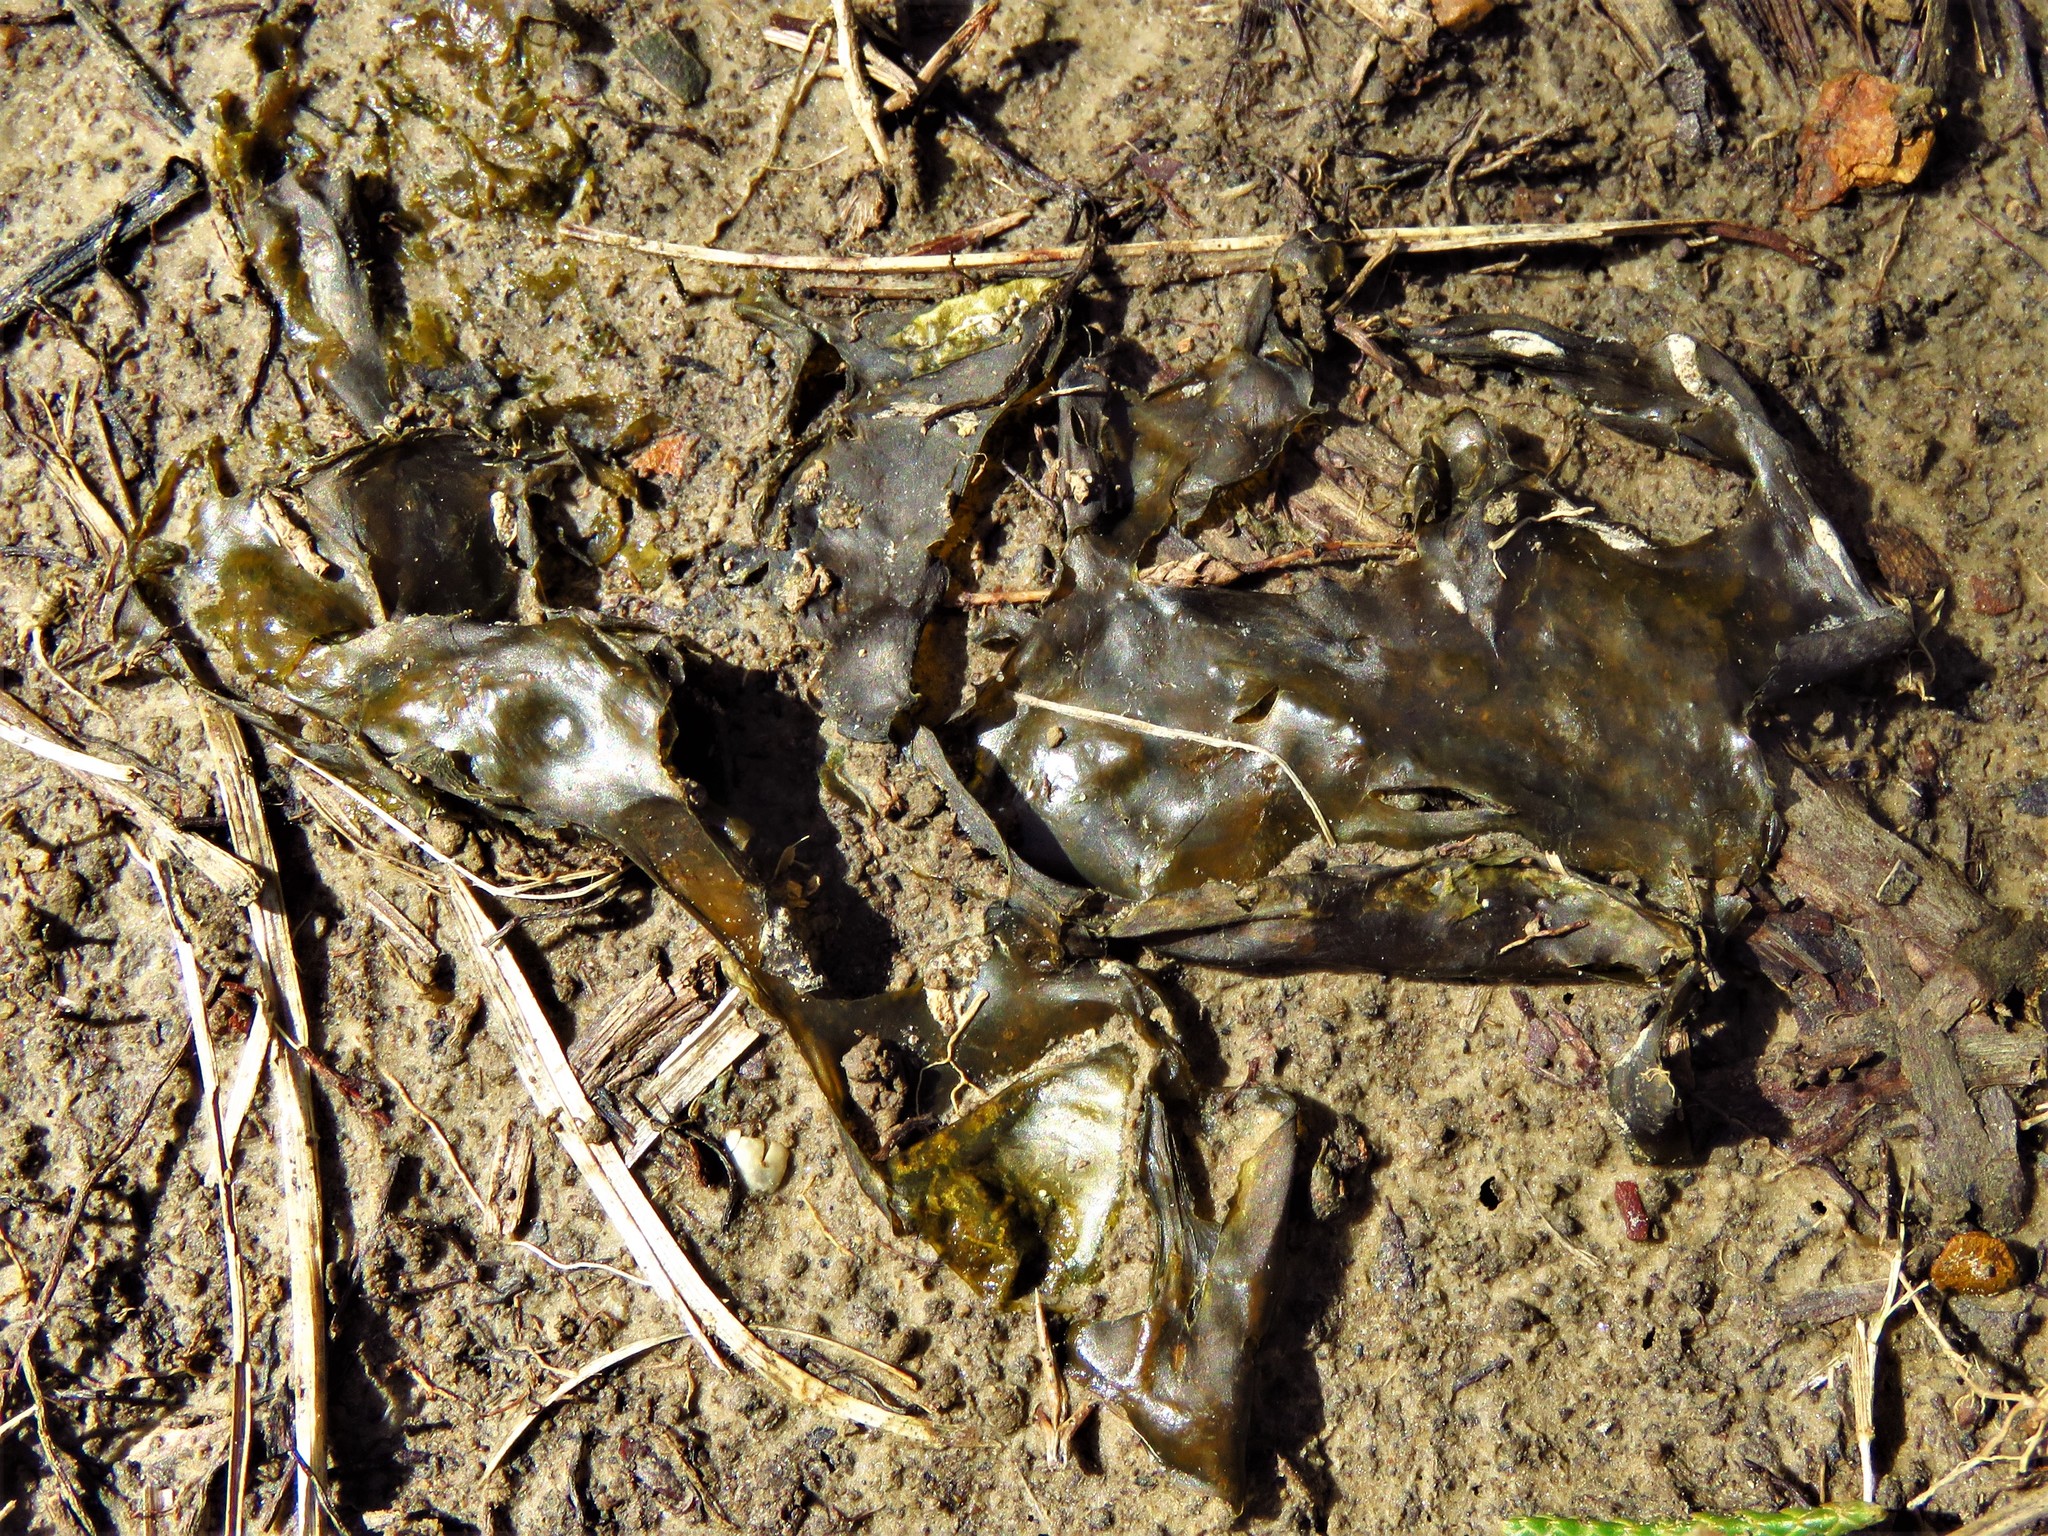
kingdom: Bacteria
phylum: Cyanobacteria
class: Cyanobacteriia
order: Cyanobacteriales
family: Nostocaceae
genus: Nostoc
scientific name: Nostoc commune
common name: Star jelly
